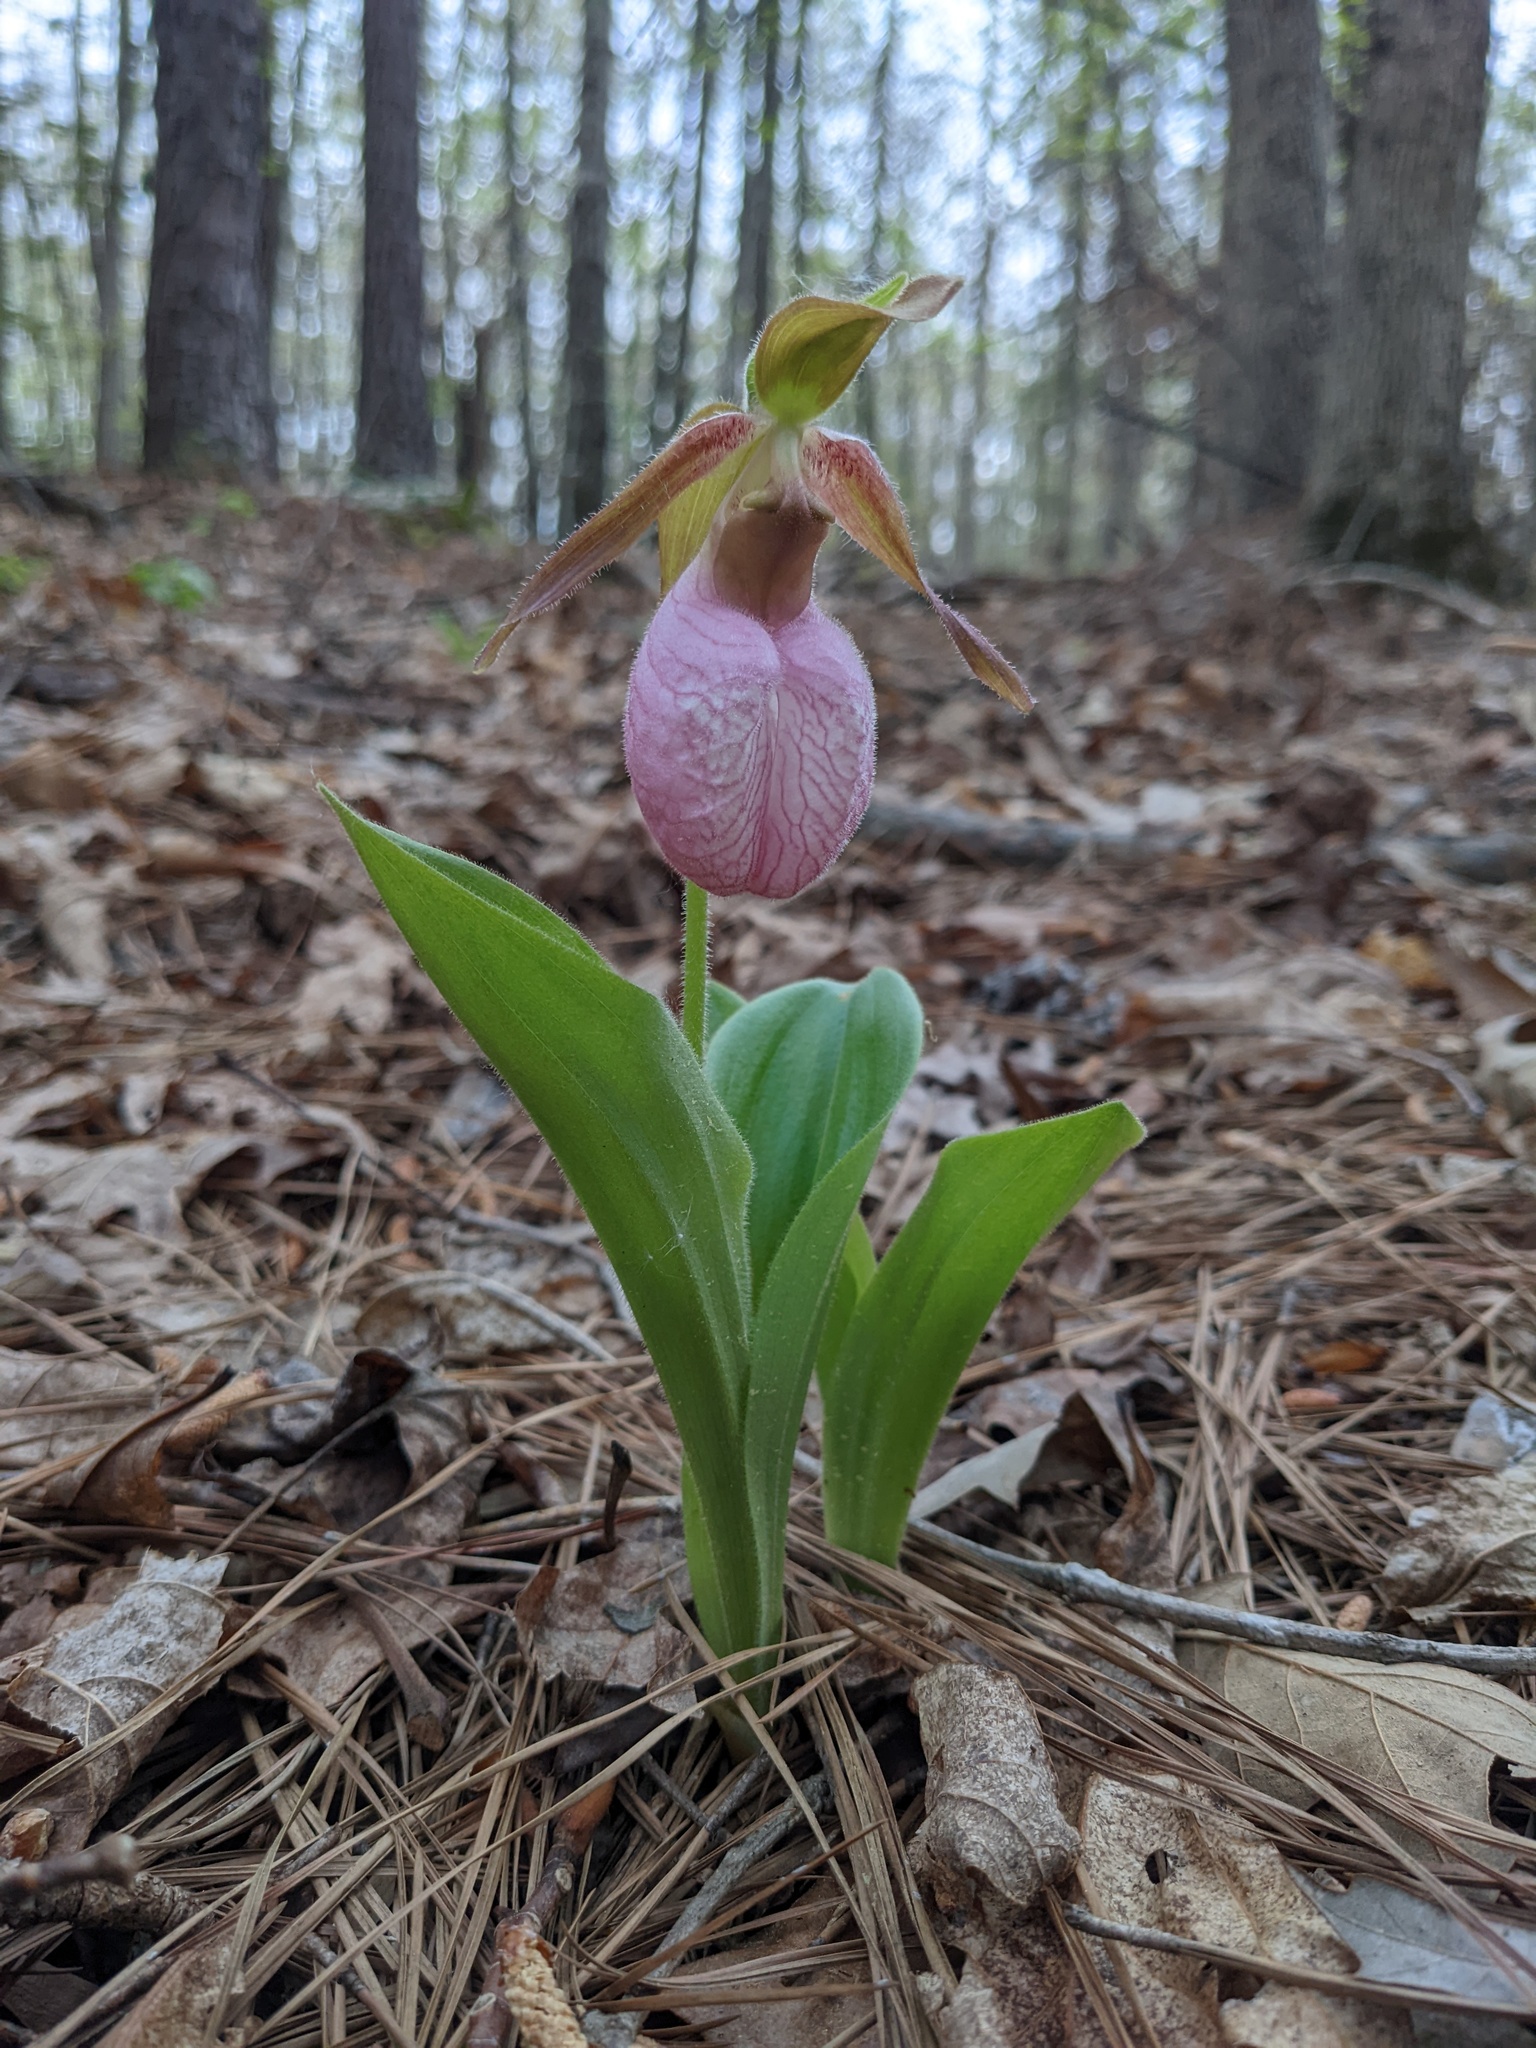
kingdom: Plantae
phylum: Tracheophyta
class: Liliopsida
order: Asparagales
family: Orchidaceae
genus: Cypripedium
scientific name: Cypripedium acaule
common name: Pink lady's-slipper
